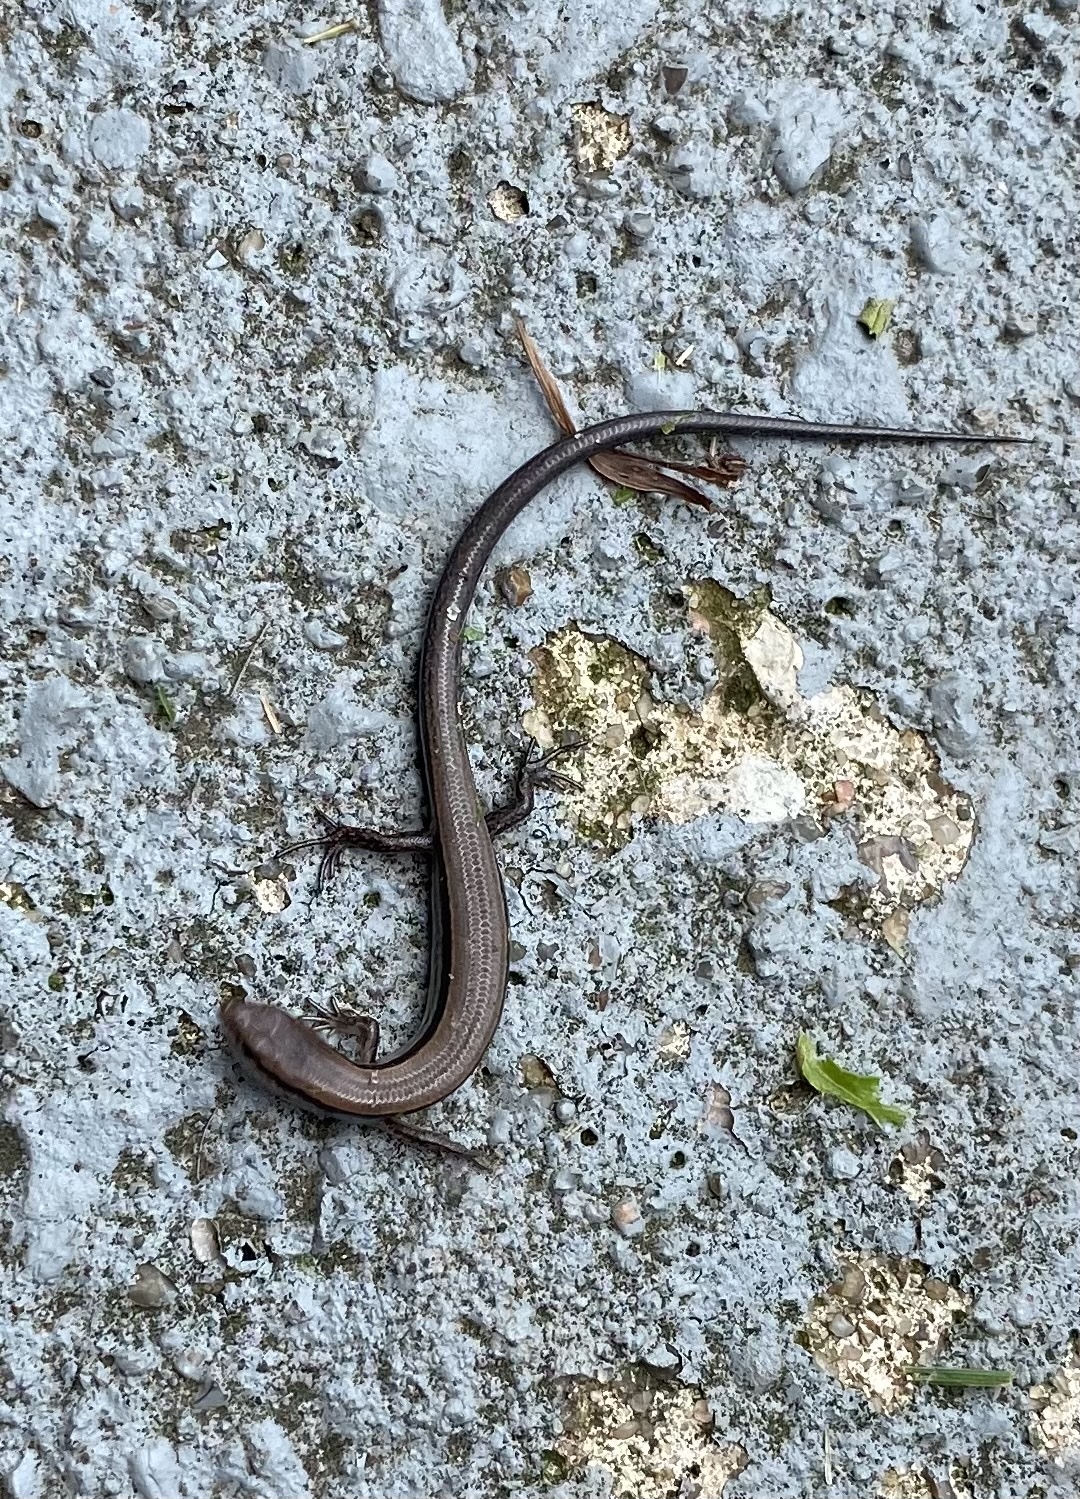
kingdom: Animalia
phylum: Chordata
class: Squamata
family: Scincidae
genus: Scincella
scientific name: Scincella lateralis
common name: Ground skink
